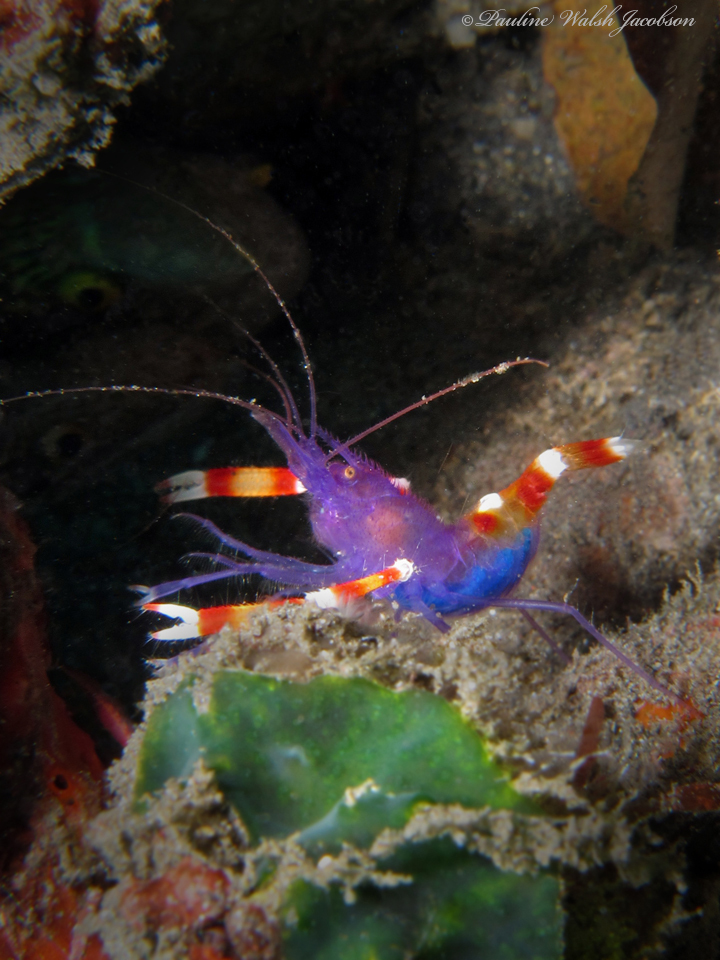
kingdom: Animalia
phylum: Arthropoda
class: Malacostraca
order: Decapoda
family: Stenopodidae
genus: Stenopus
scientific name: Stenopus tenuirostris
